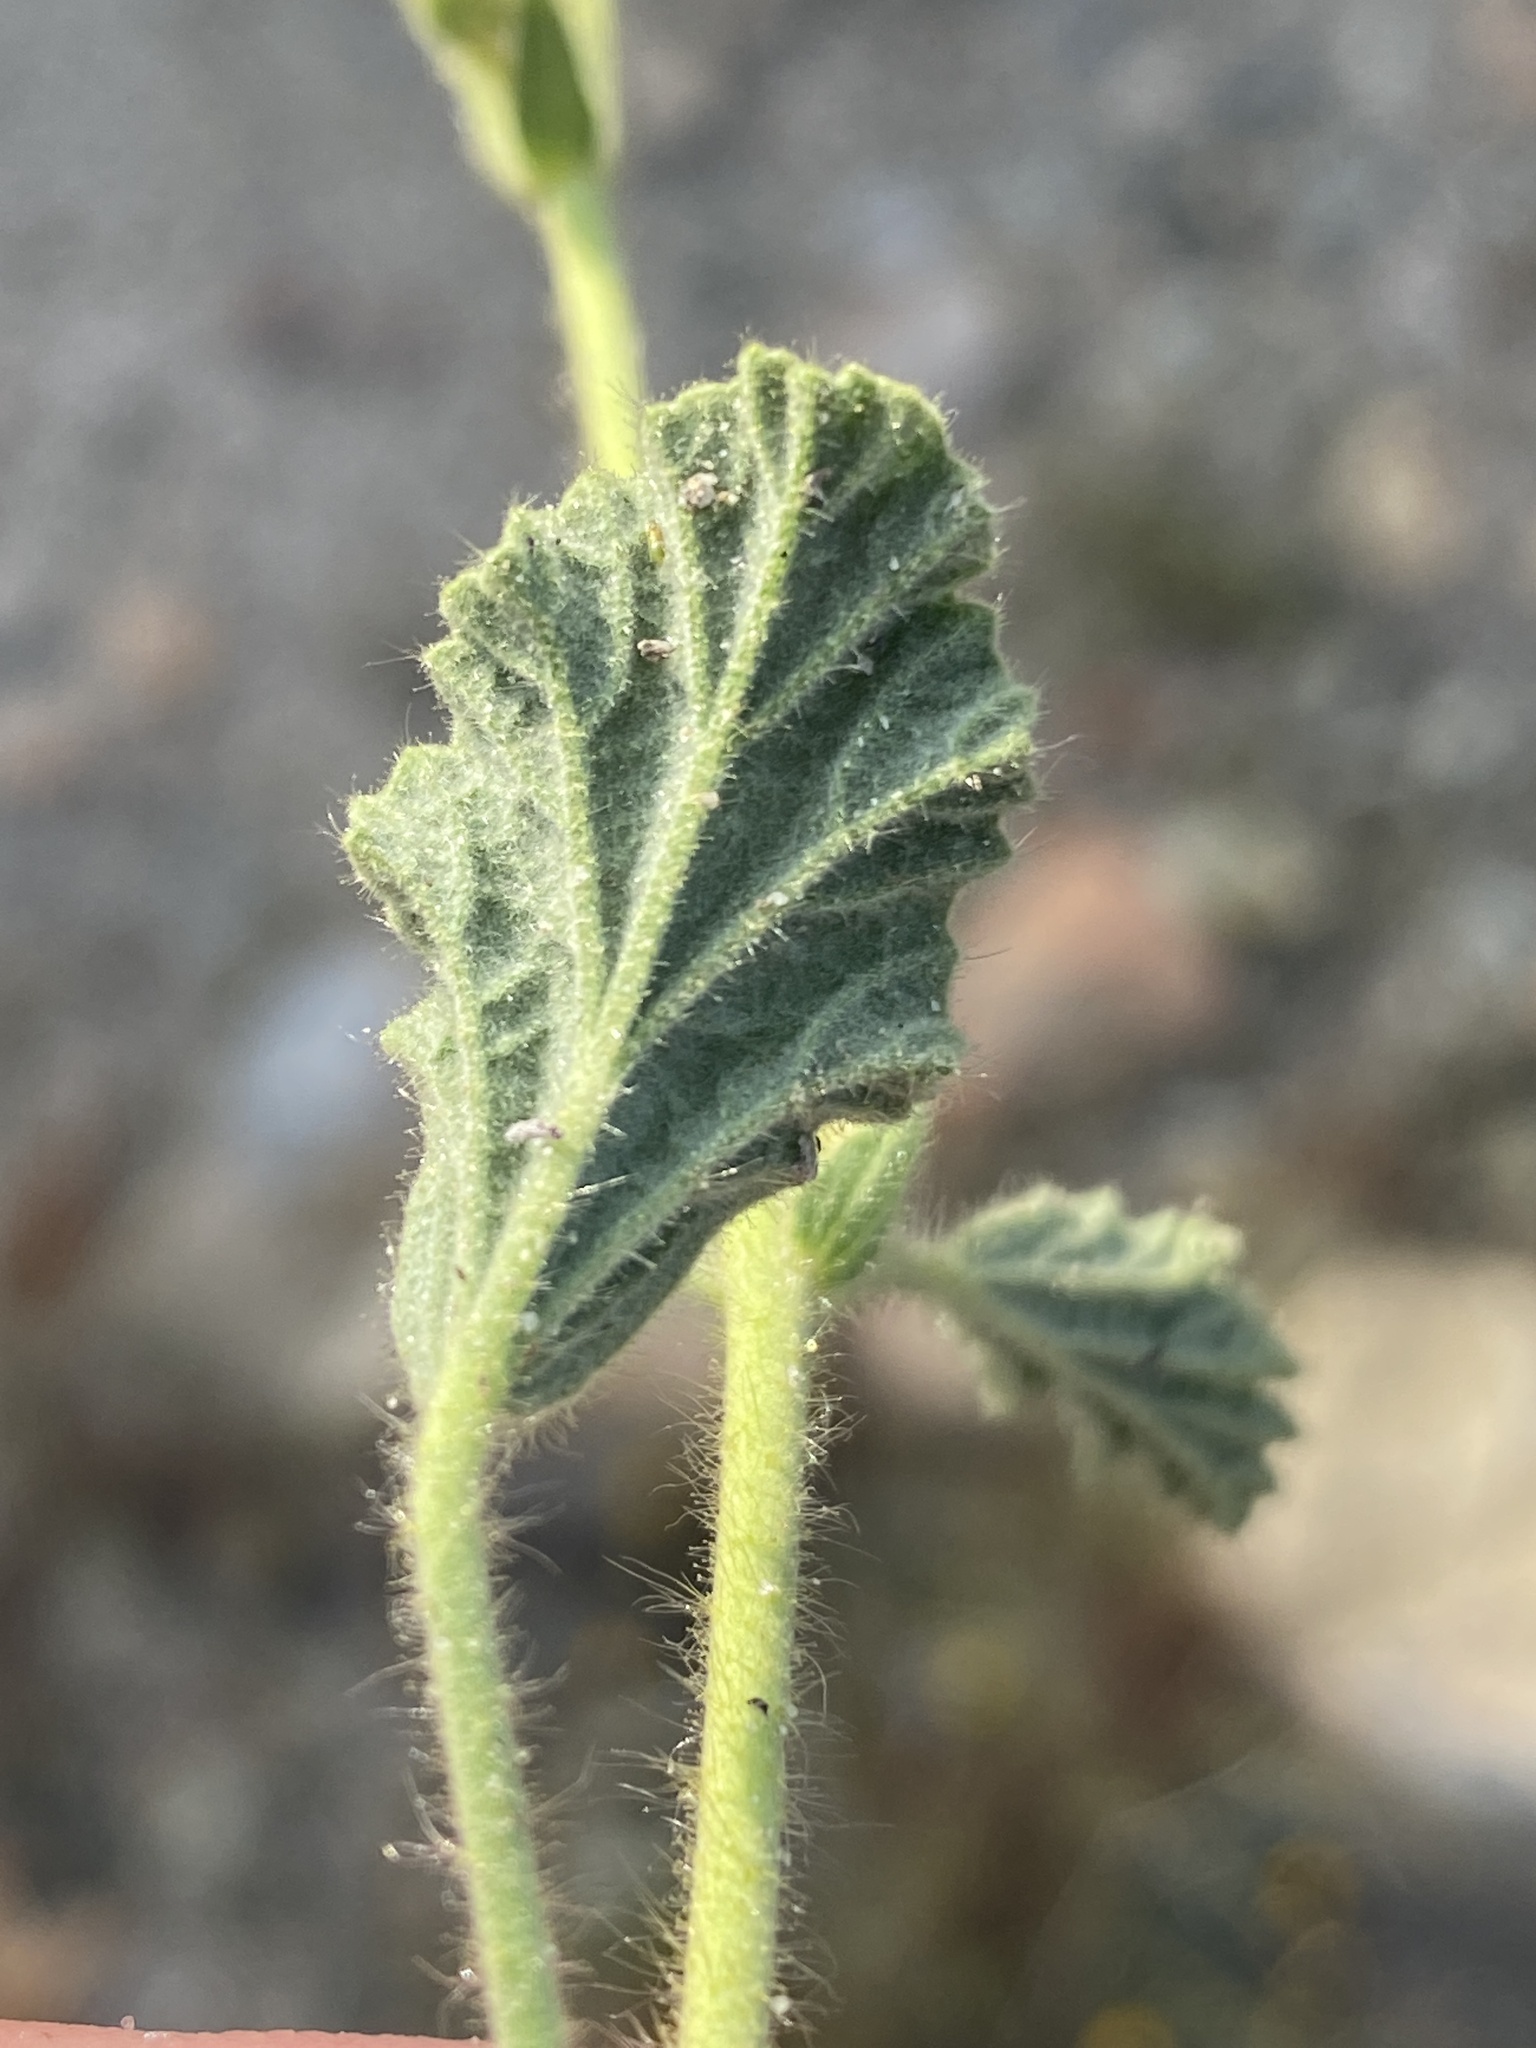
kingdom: Plantae
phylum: Tracheophyta
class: Magnoliopsida
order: Malvales
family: Malvaceae
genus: Hermannia
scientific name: Hermannia althaeifolia
